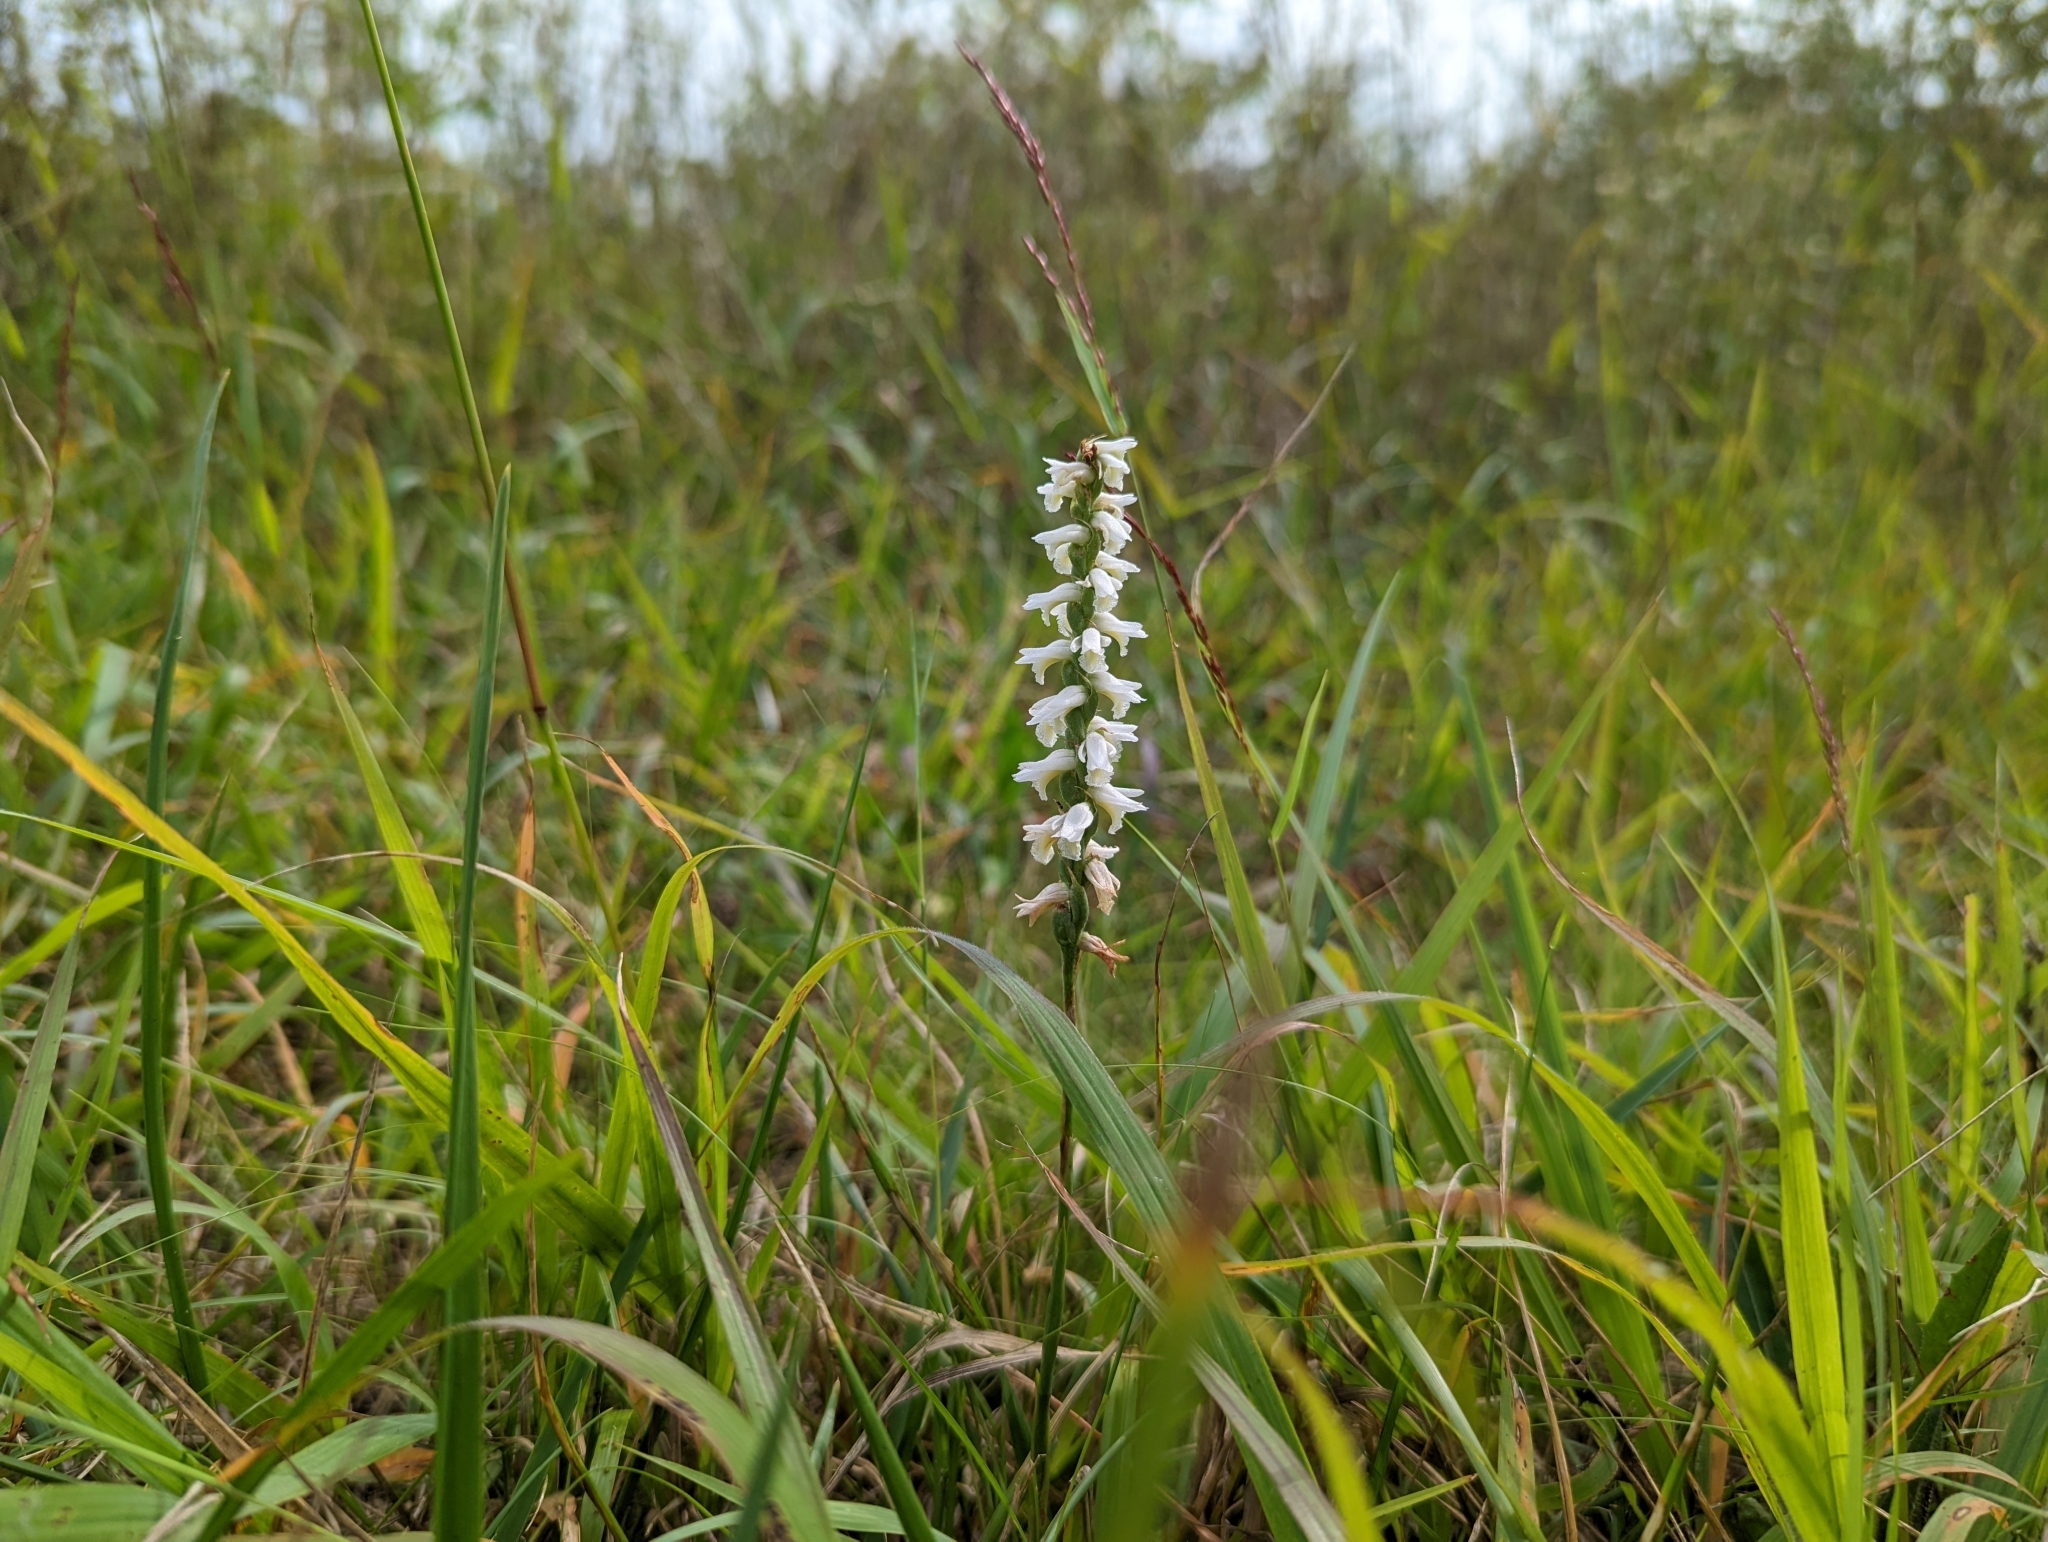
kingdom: Plantae
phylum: Tracheophyta
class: Liliopsida
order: Asparagales
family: Orchidaceae
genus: Spiranthes
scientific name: Spiranthes magnicamporum
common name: Great plains ladies'-tresses
